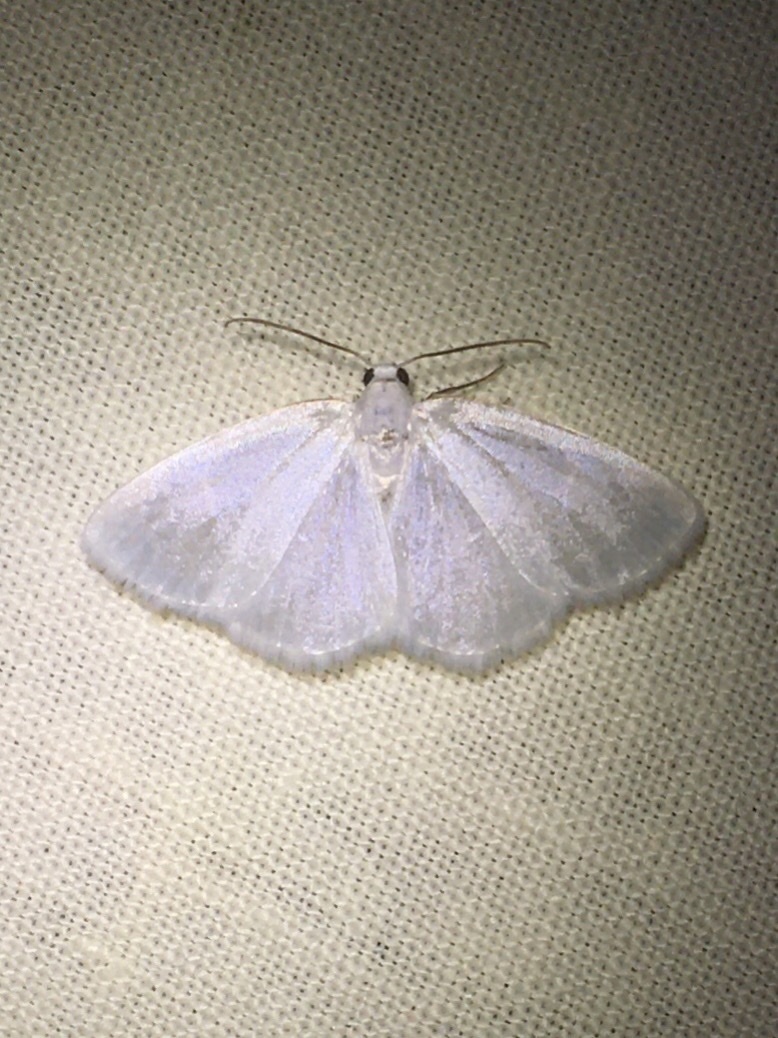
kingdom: Animalia
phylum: Arthropoda
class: Insecta
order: Lepidoptera
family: Geometridae
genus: Lomographa
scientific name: Lomographa vestaliata
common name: White spring moth
